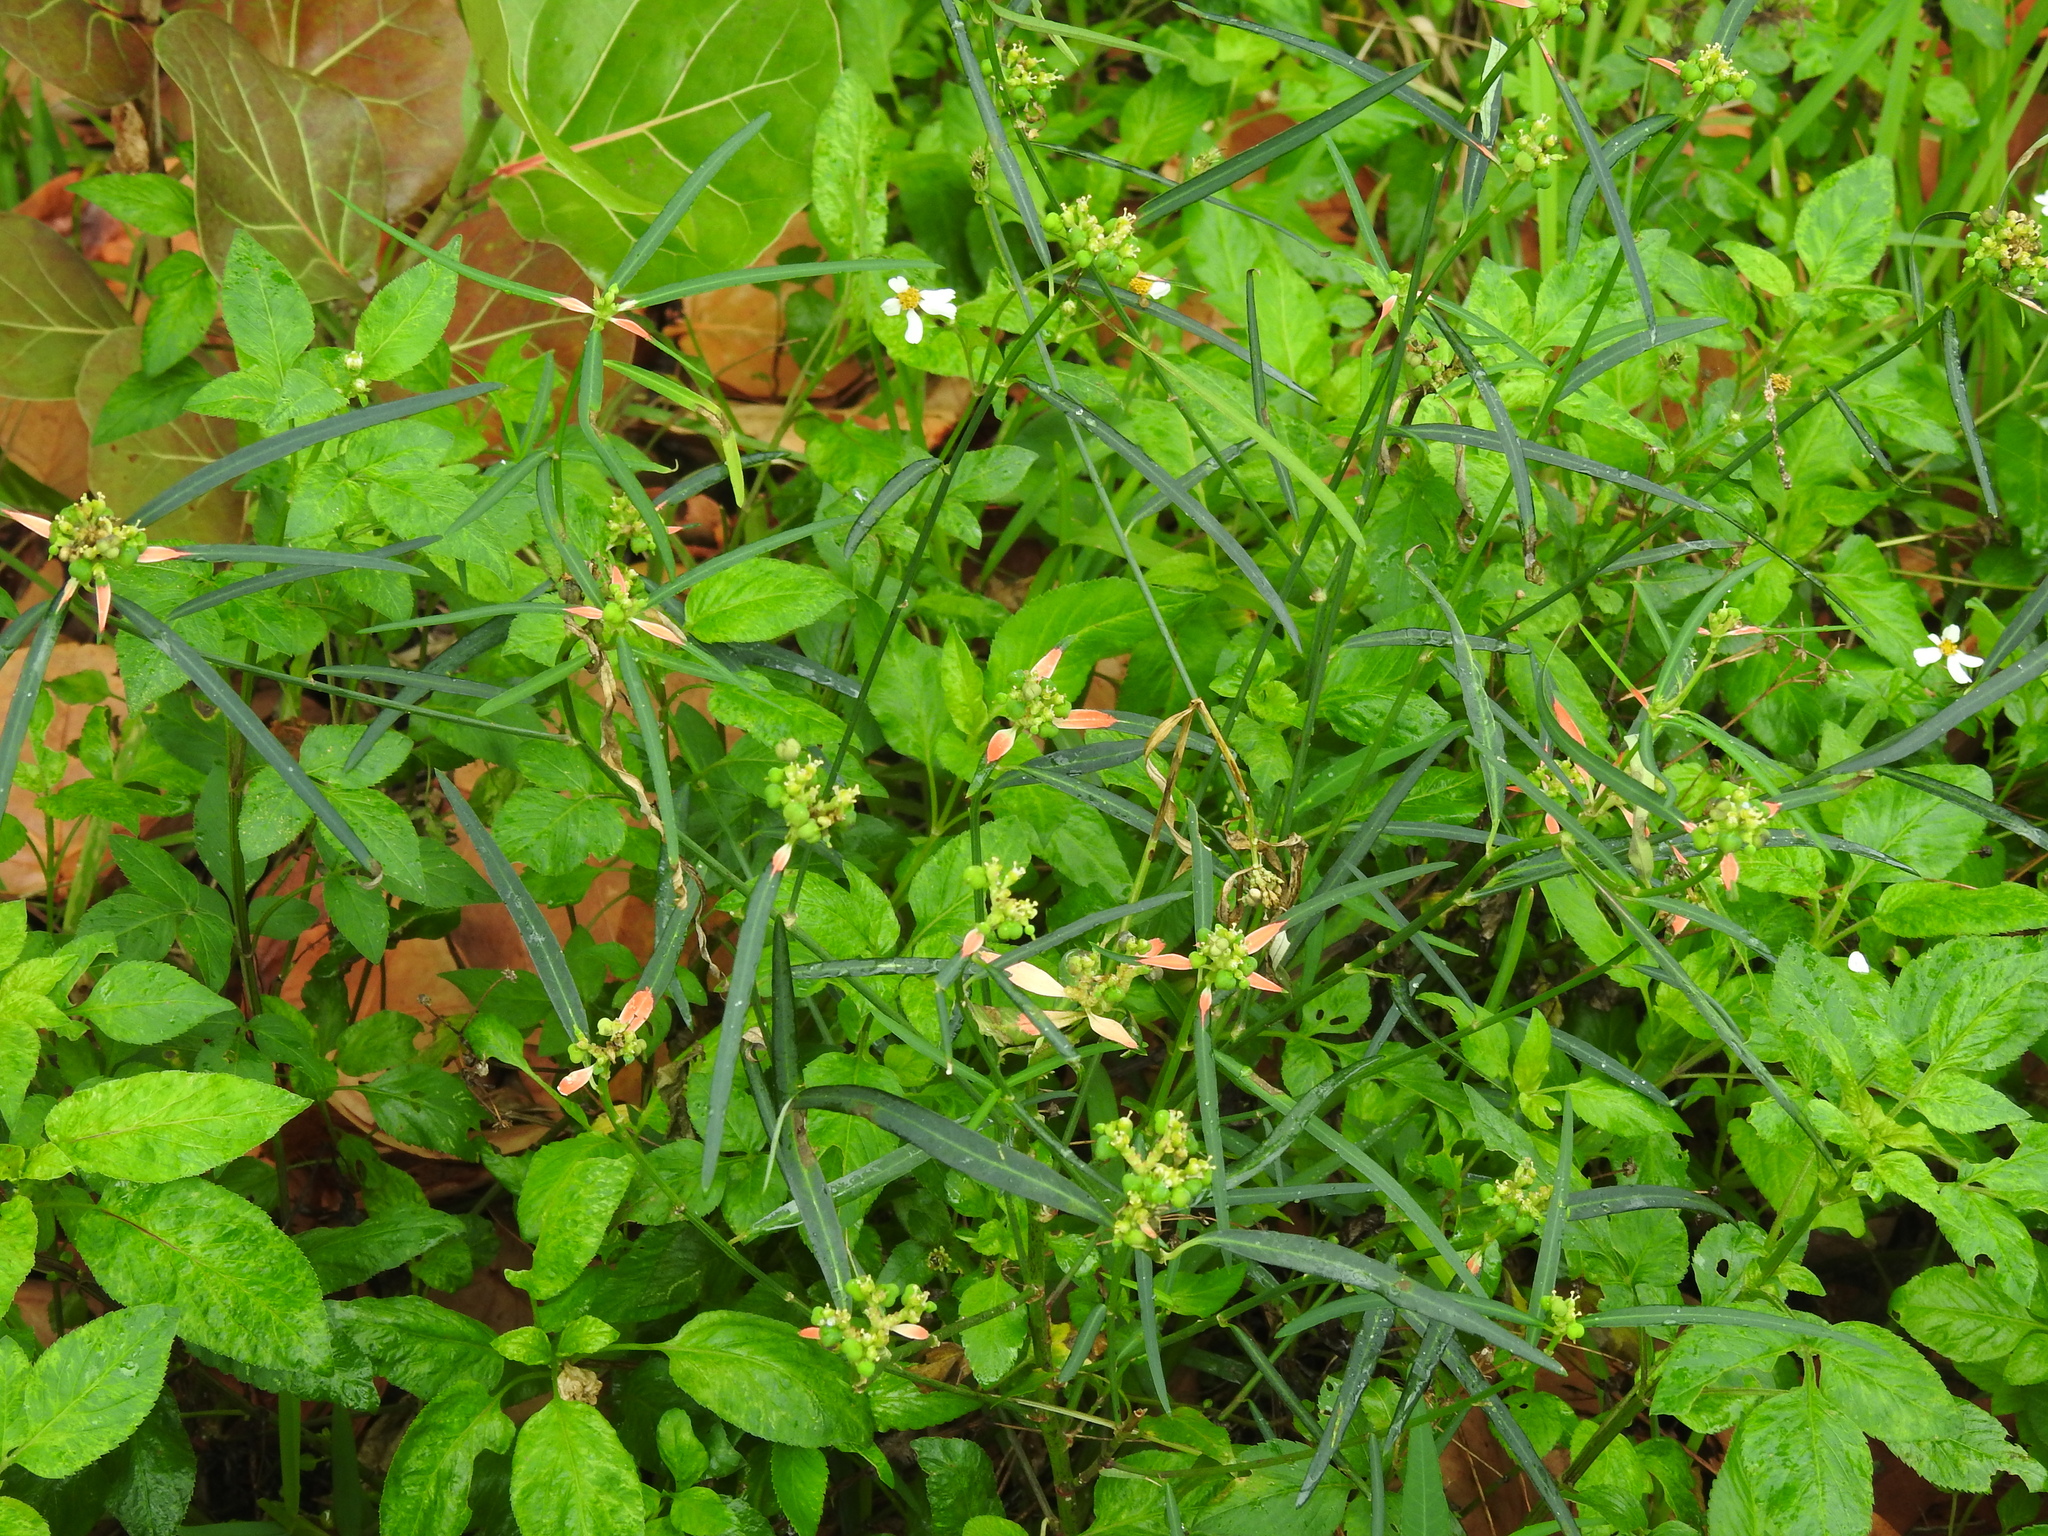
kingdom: Plantae
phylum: Tracheophyta
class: Magnoliopsida
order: Malpighiales
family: Euphorbiaceae
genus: Euphorbia
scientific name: Euphorbia heterophylla
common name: Mexican fireplant
